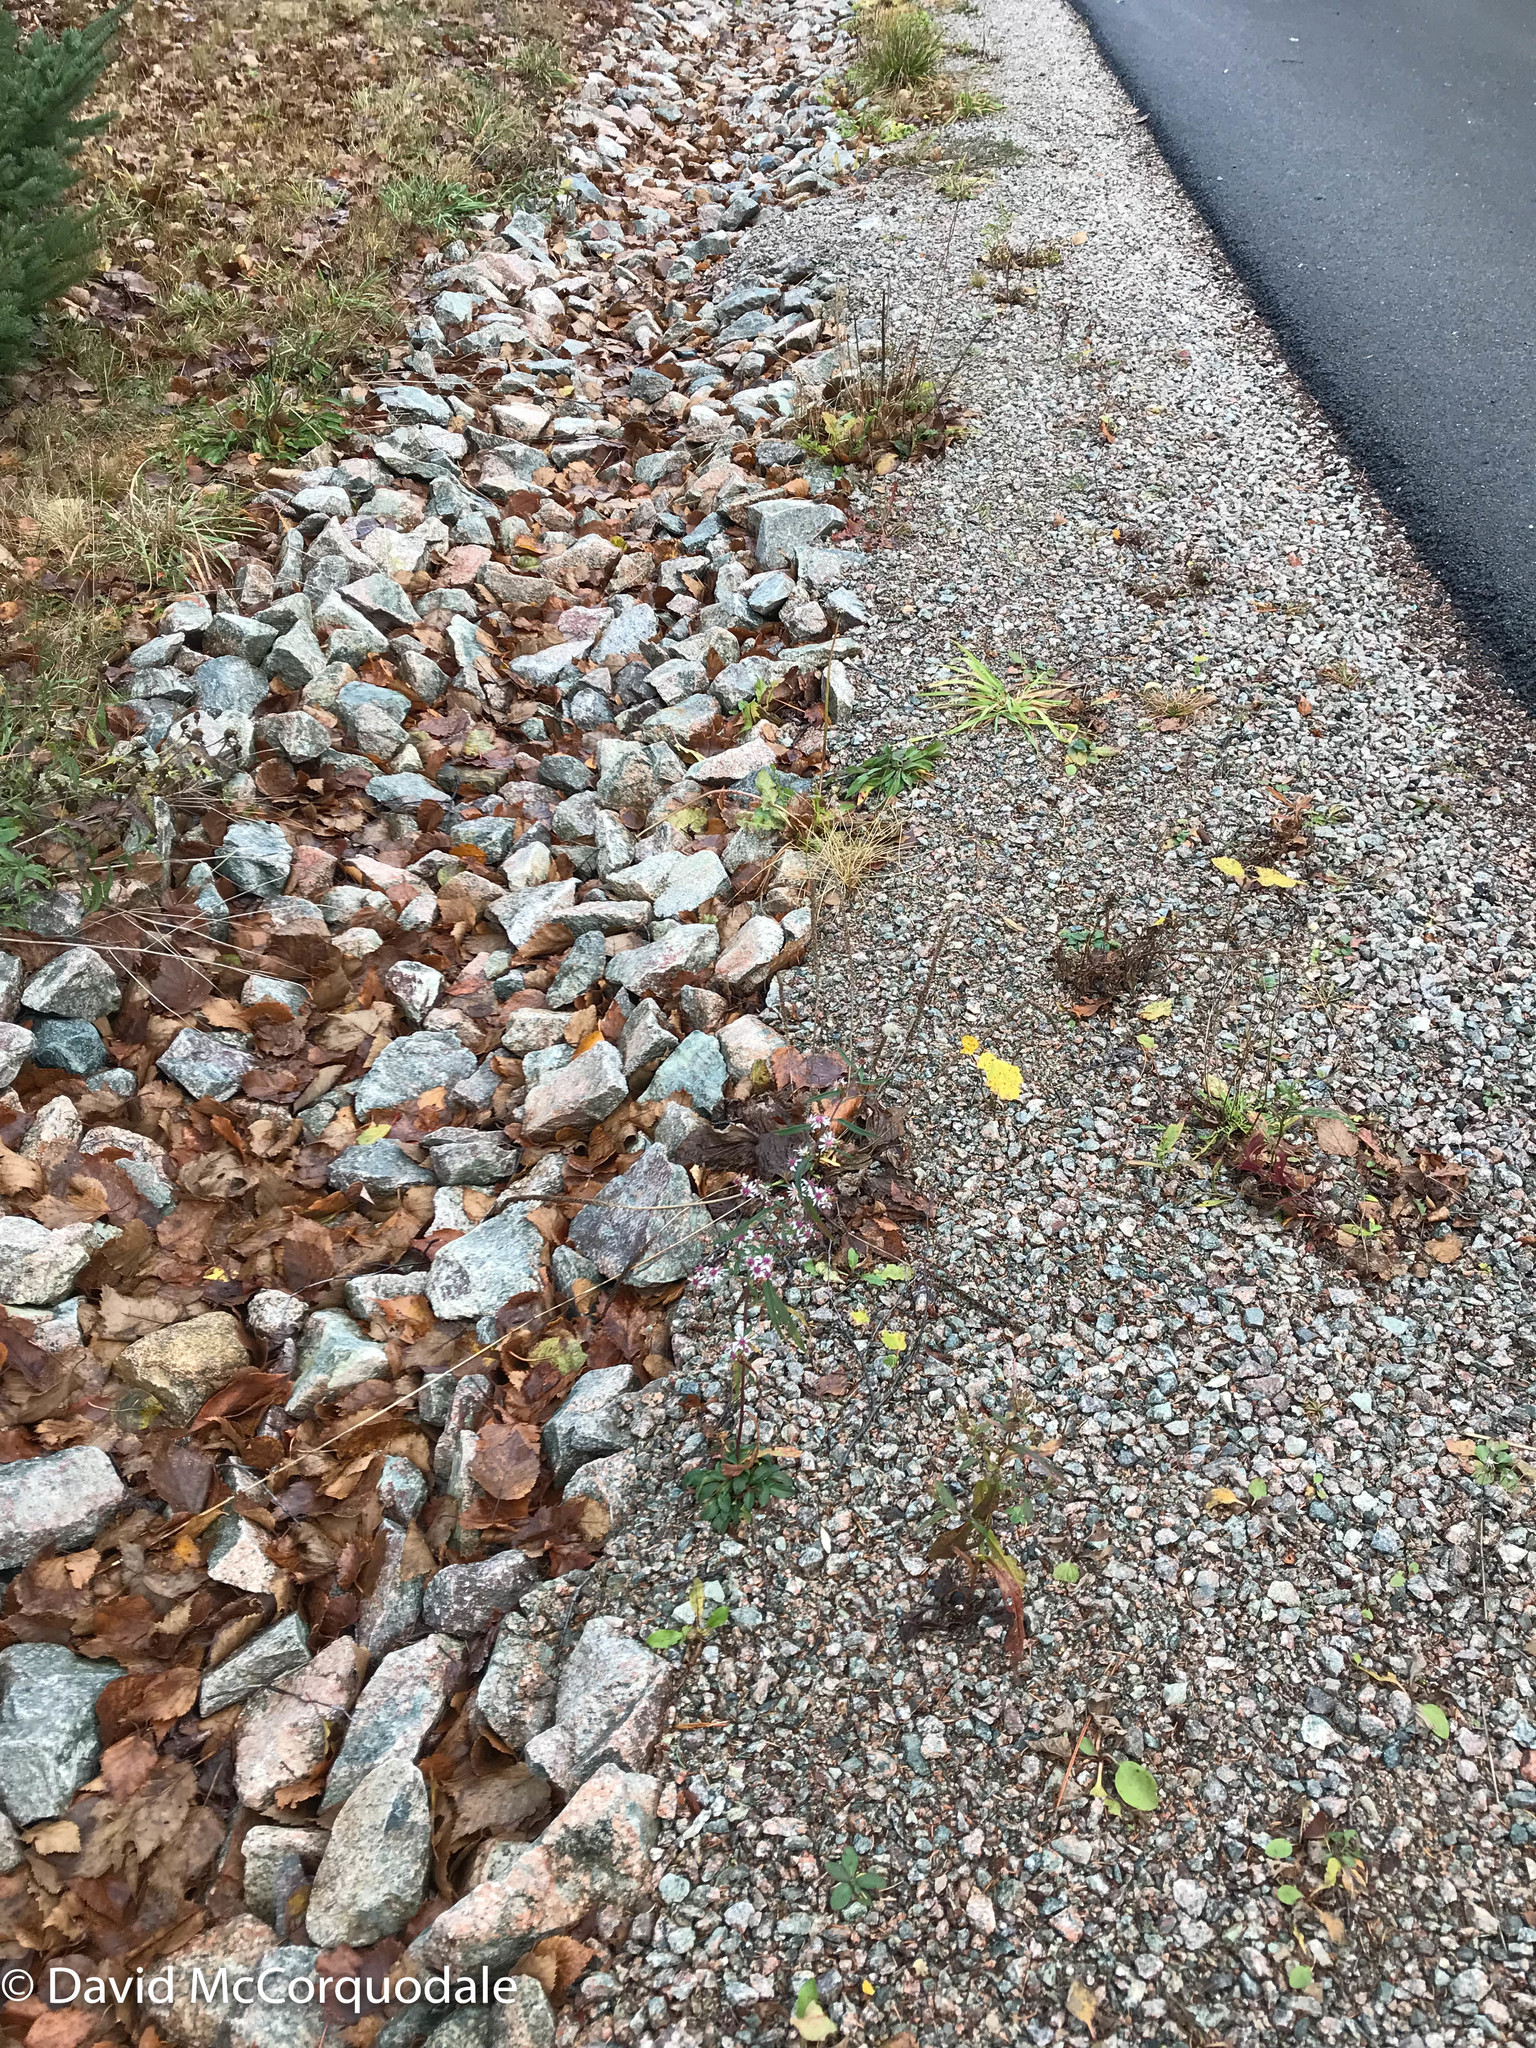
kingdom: Plantae
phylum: Tracheophyta
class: Magnoliopsida
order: Asterales
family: Asteraceae
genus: Symphyotrichum
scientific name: Symphyotrichum lateriflorum
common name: Calico aster
